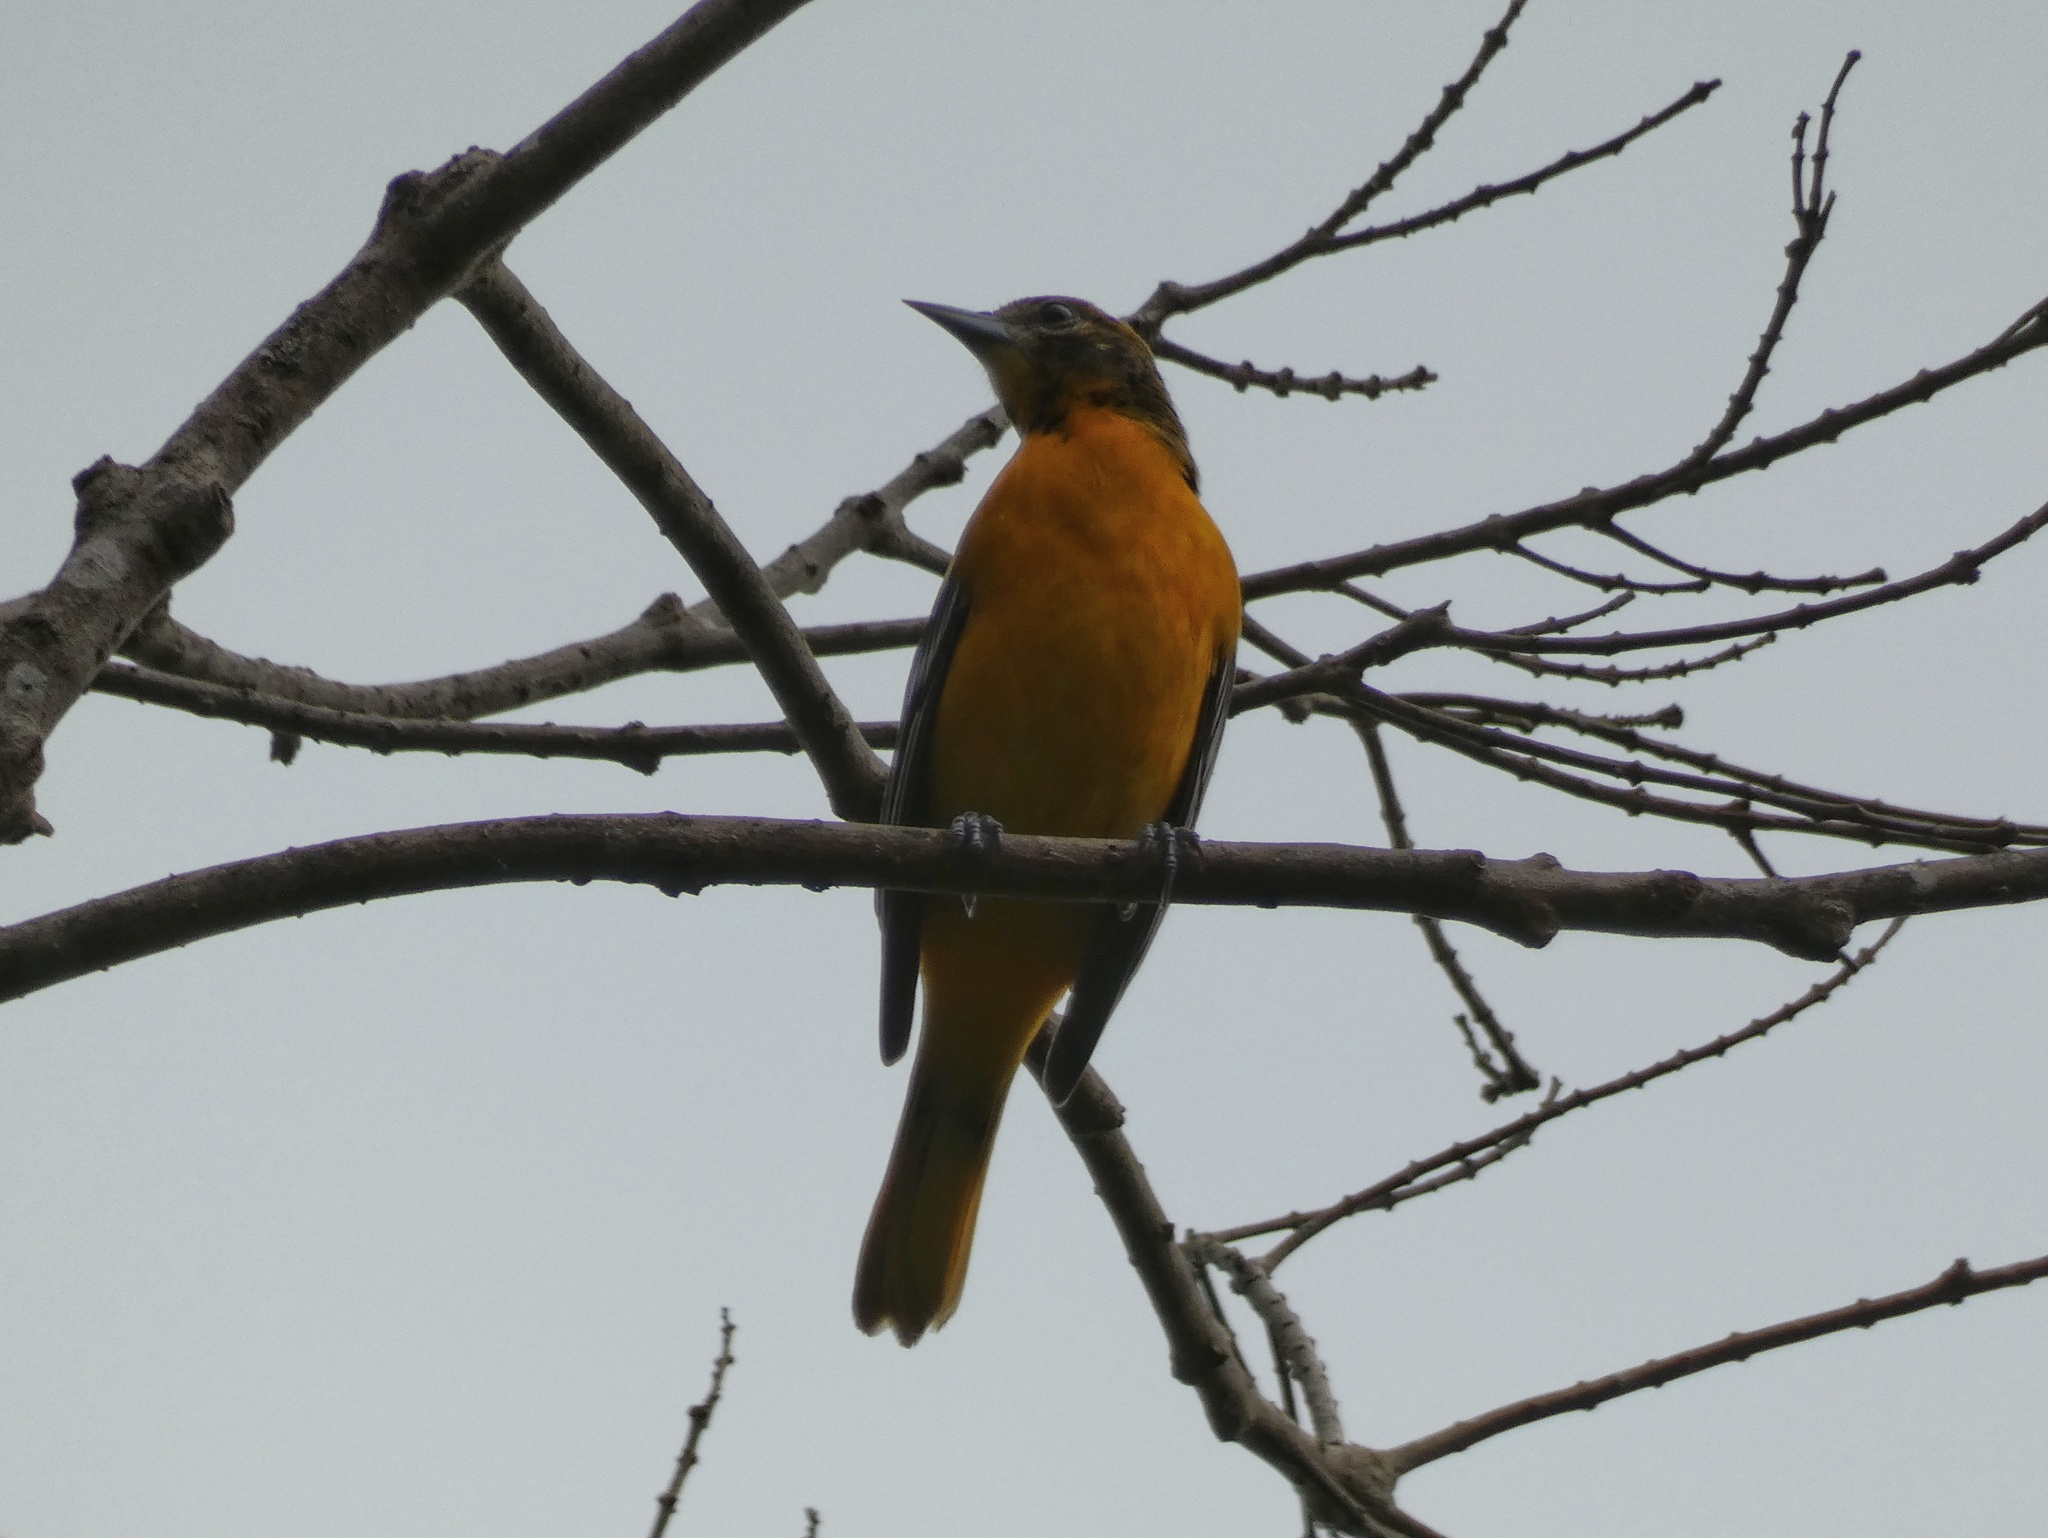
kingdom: Animalia
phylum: Chordata
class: Aves
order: Passeriformes
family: Icteridae
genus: Icterus
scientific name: Icterus galbula
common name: Baltimore oriole
